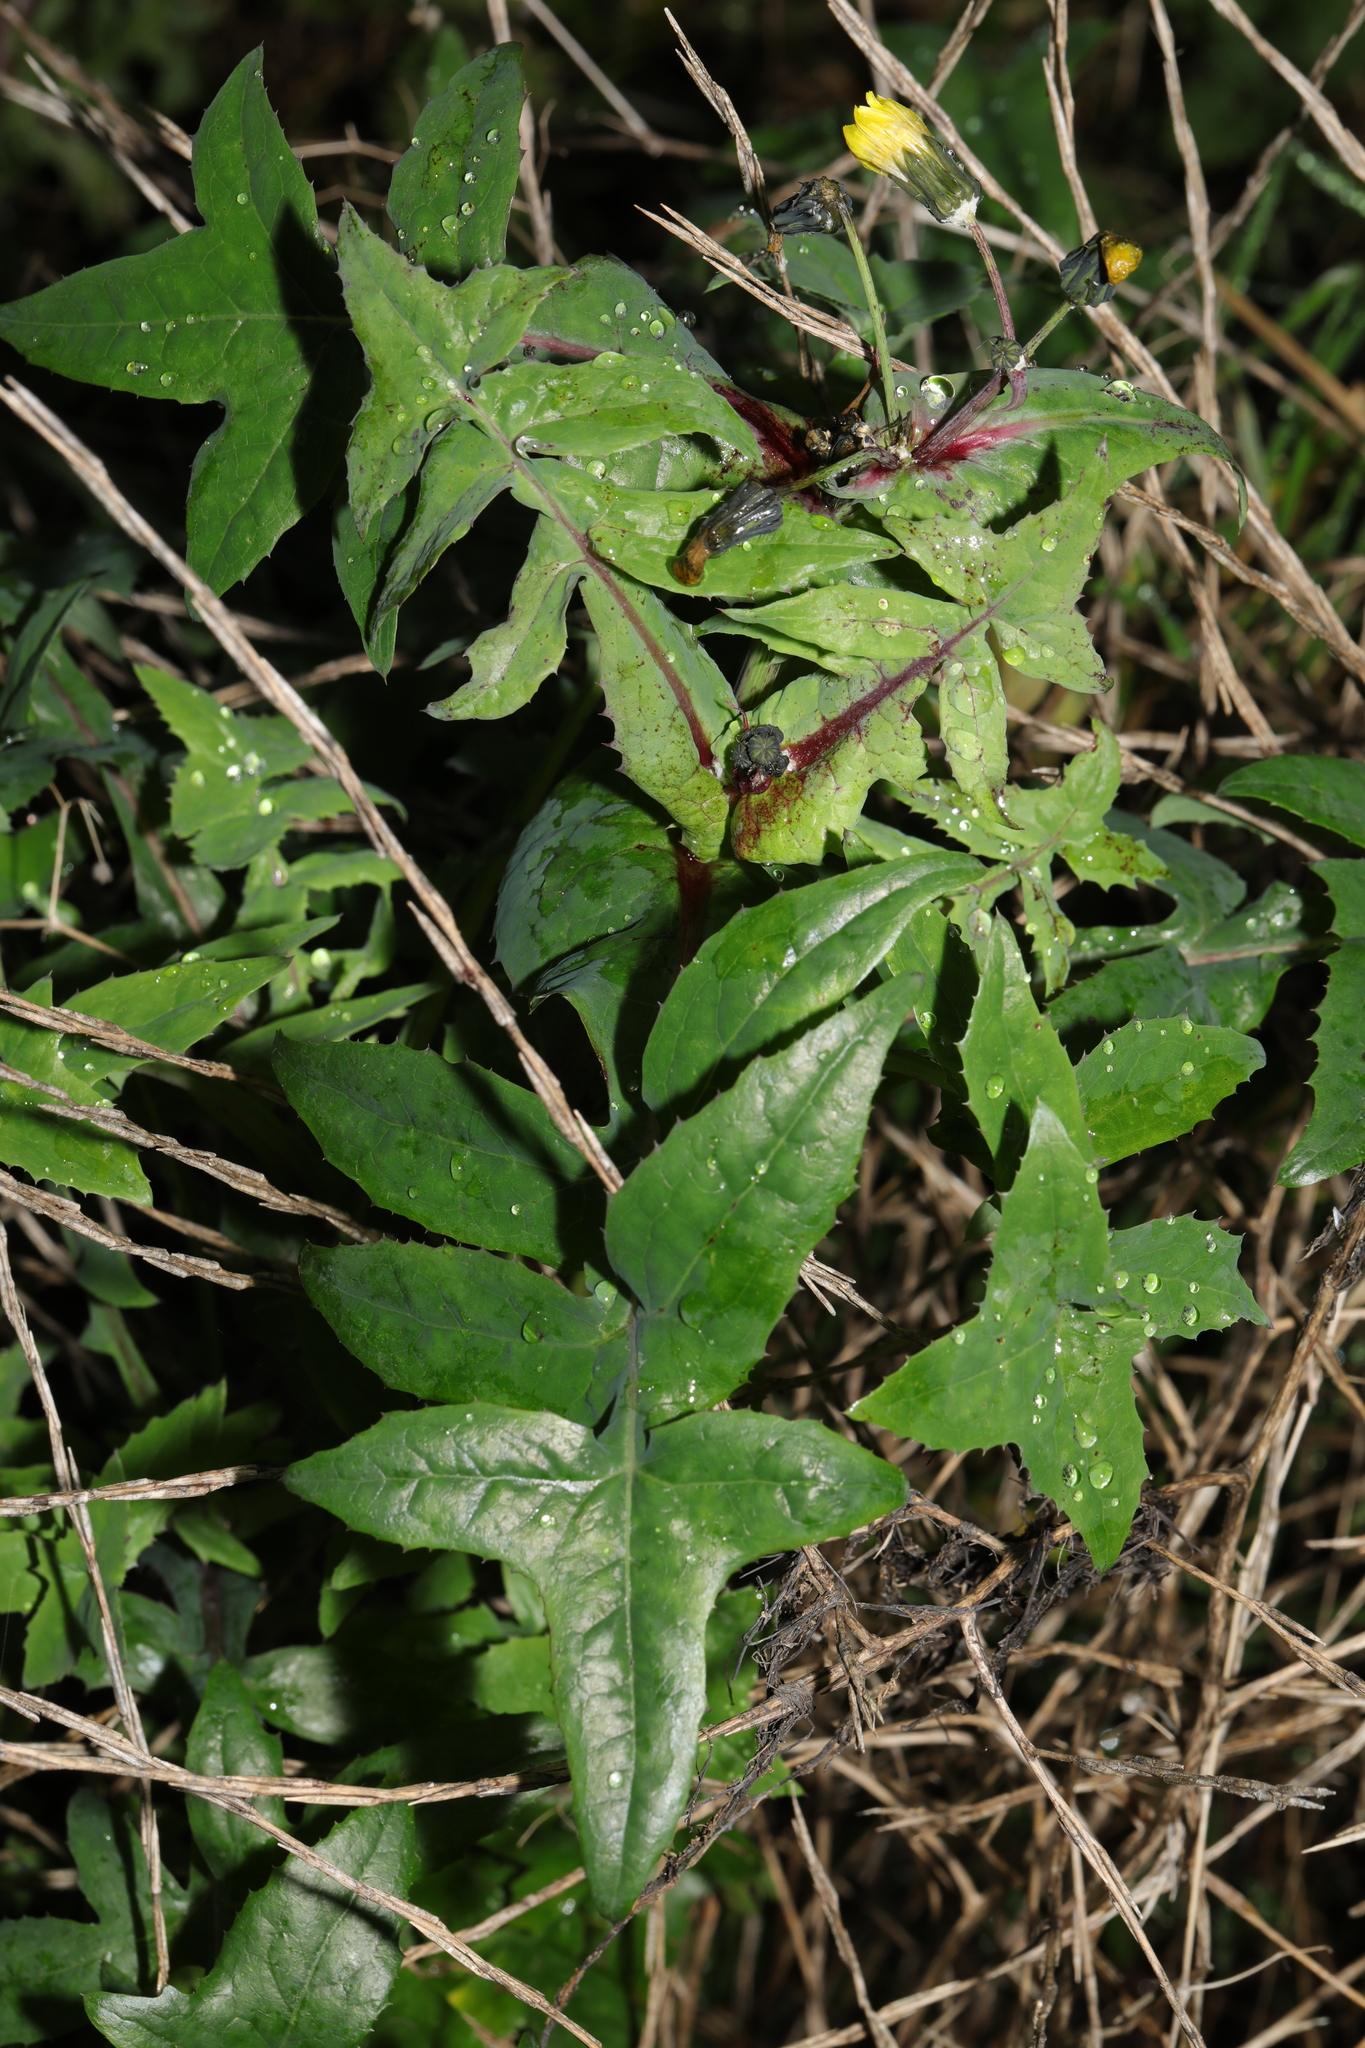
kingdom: Plantae
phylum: Tracheophyta
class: Magnoliopsida
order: Asterales
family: Asteraceae
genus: Sonchus
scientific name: Sonchus oleraceus
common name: Common sowthistle
